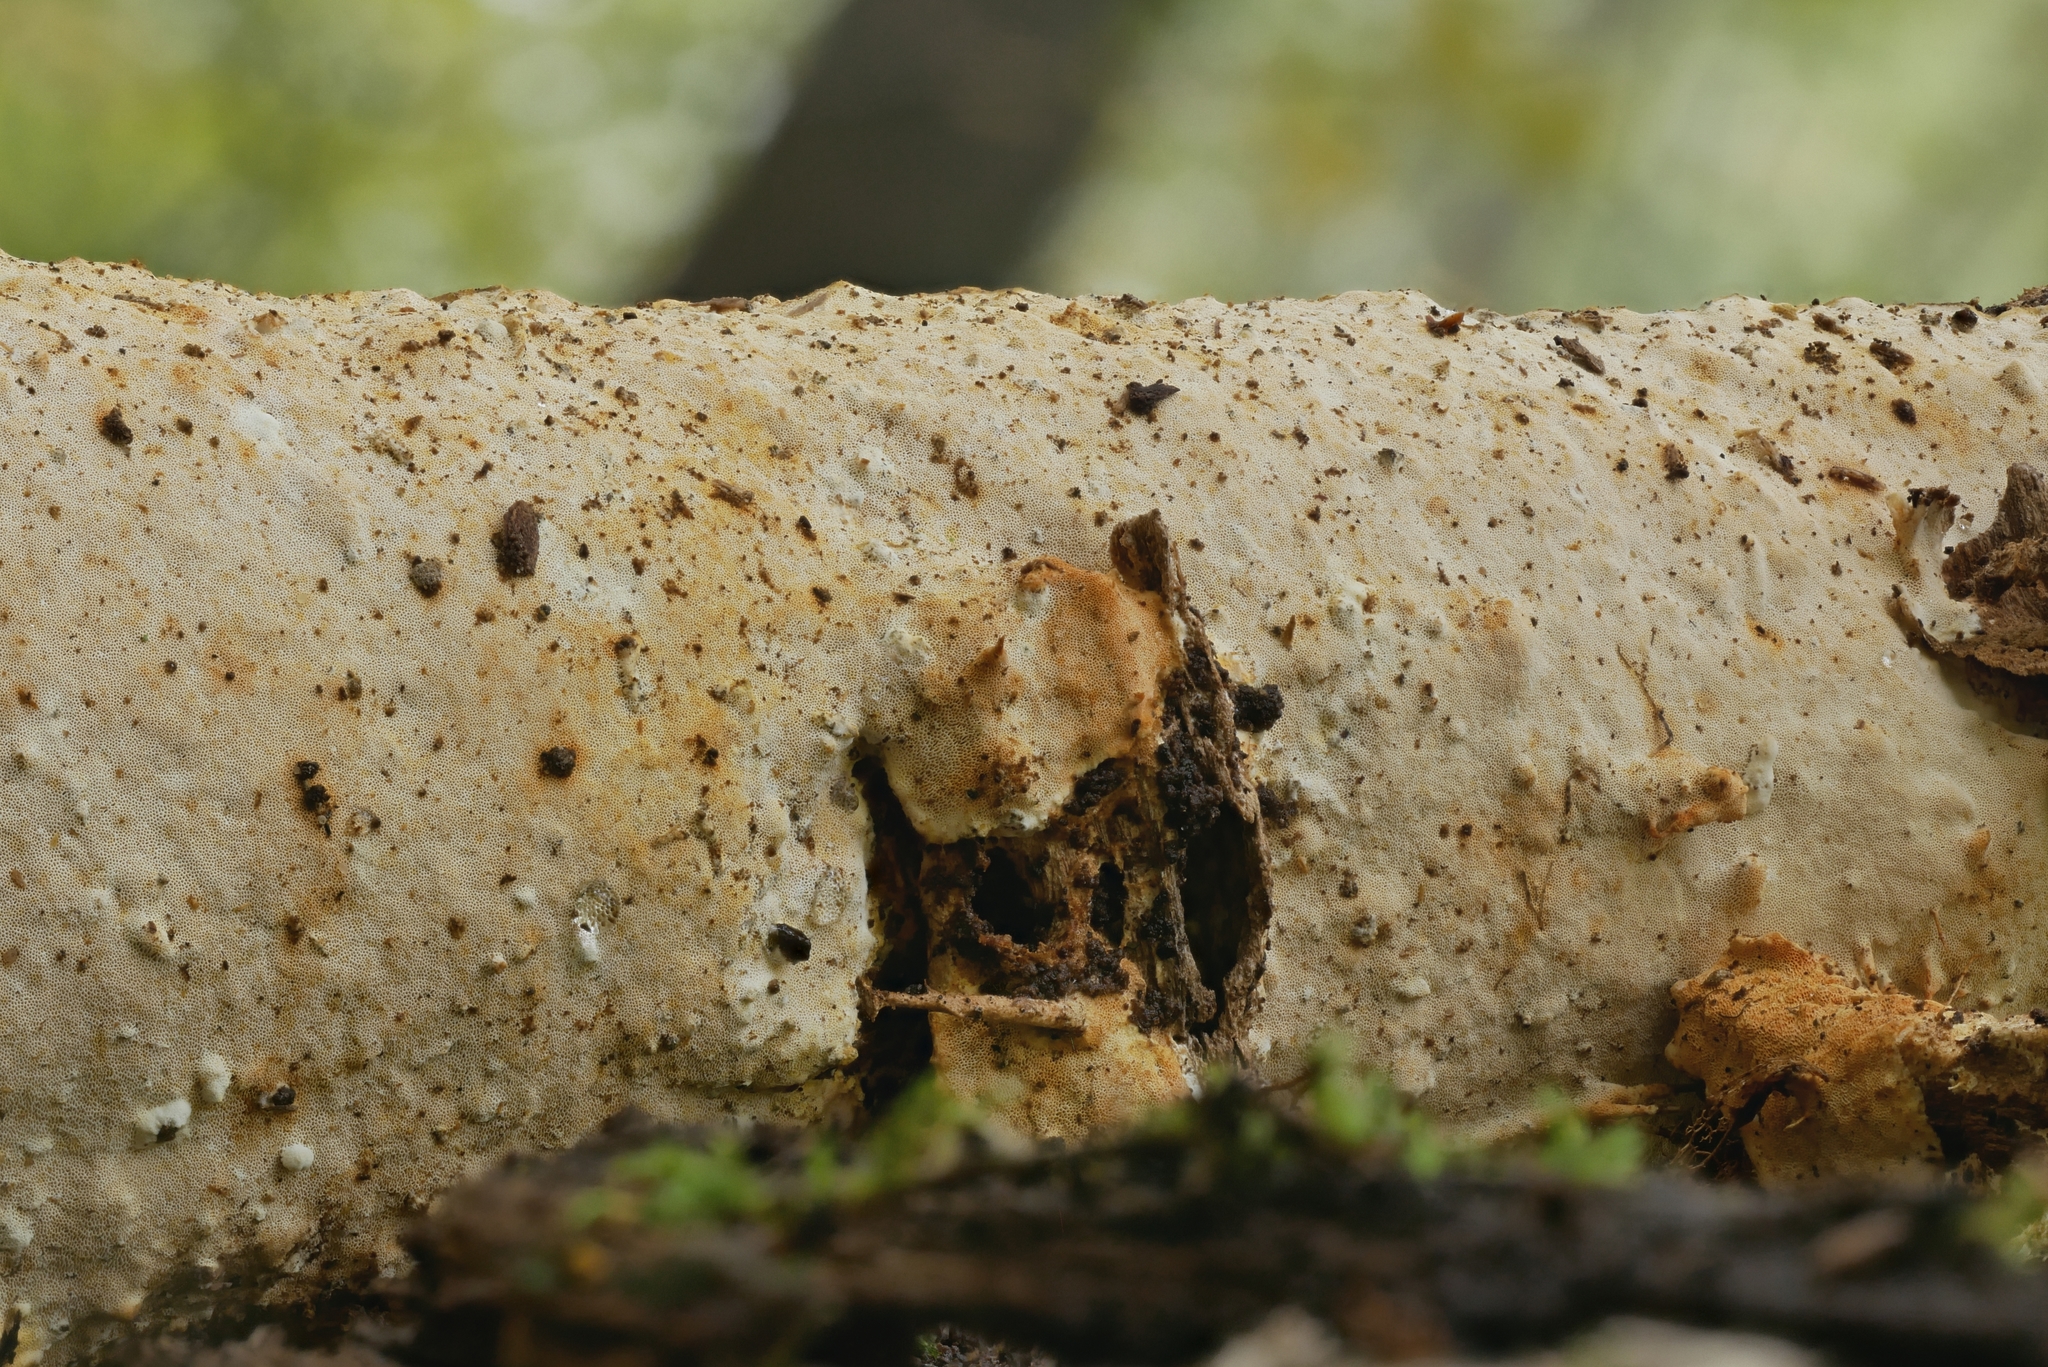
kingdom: Fungi
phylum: Basidiomycota
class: Agaricomycetes
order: Polyporales
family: Polyporaceae
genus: Perenniporia
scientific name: Perenniporia bostonensis
